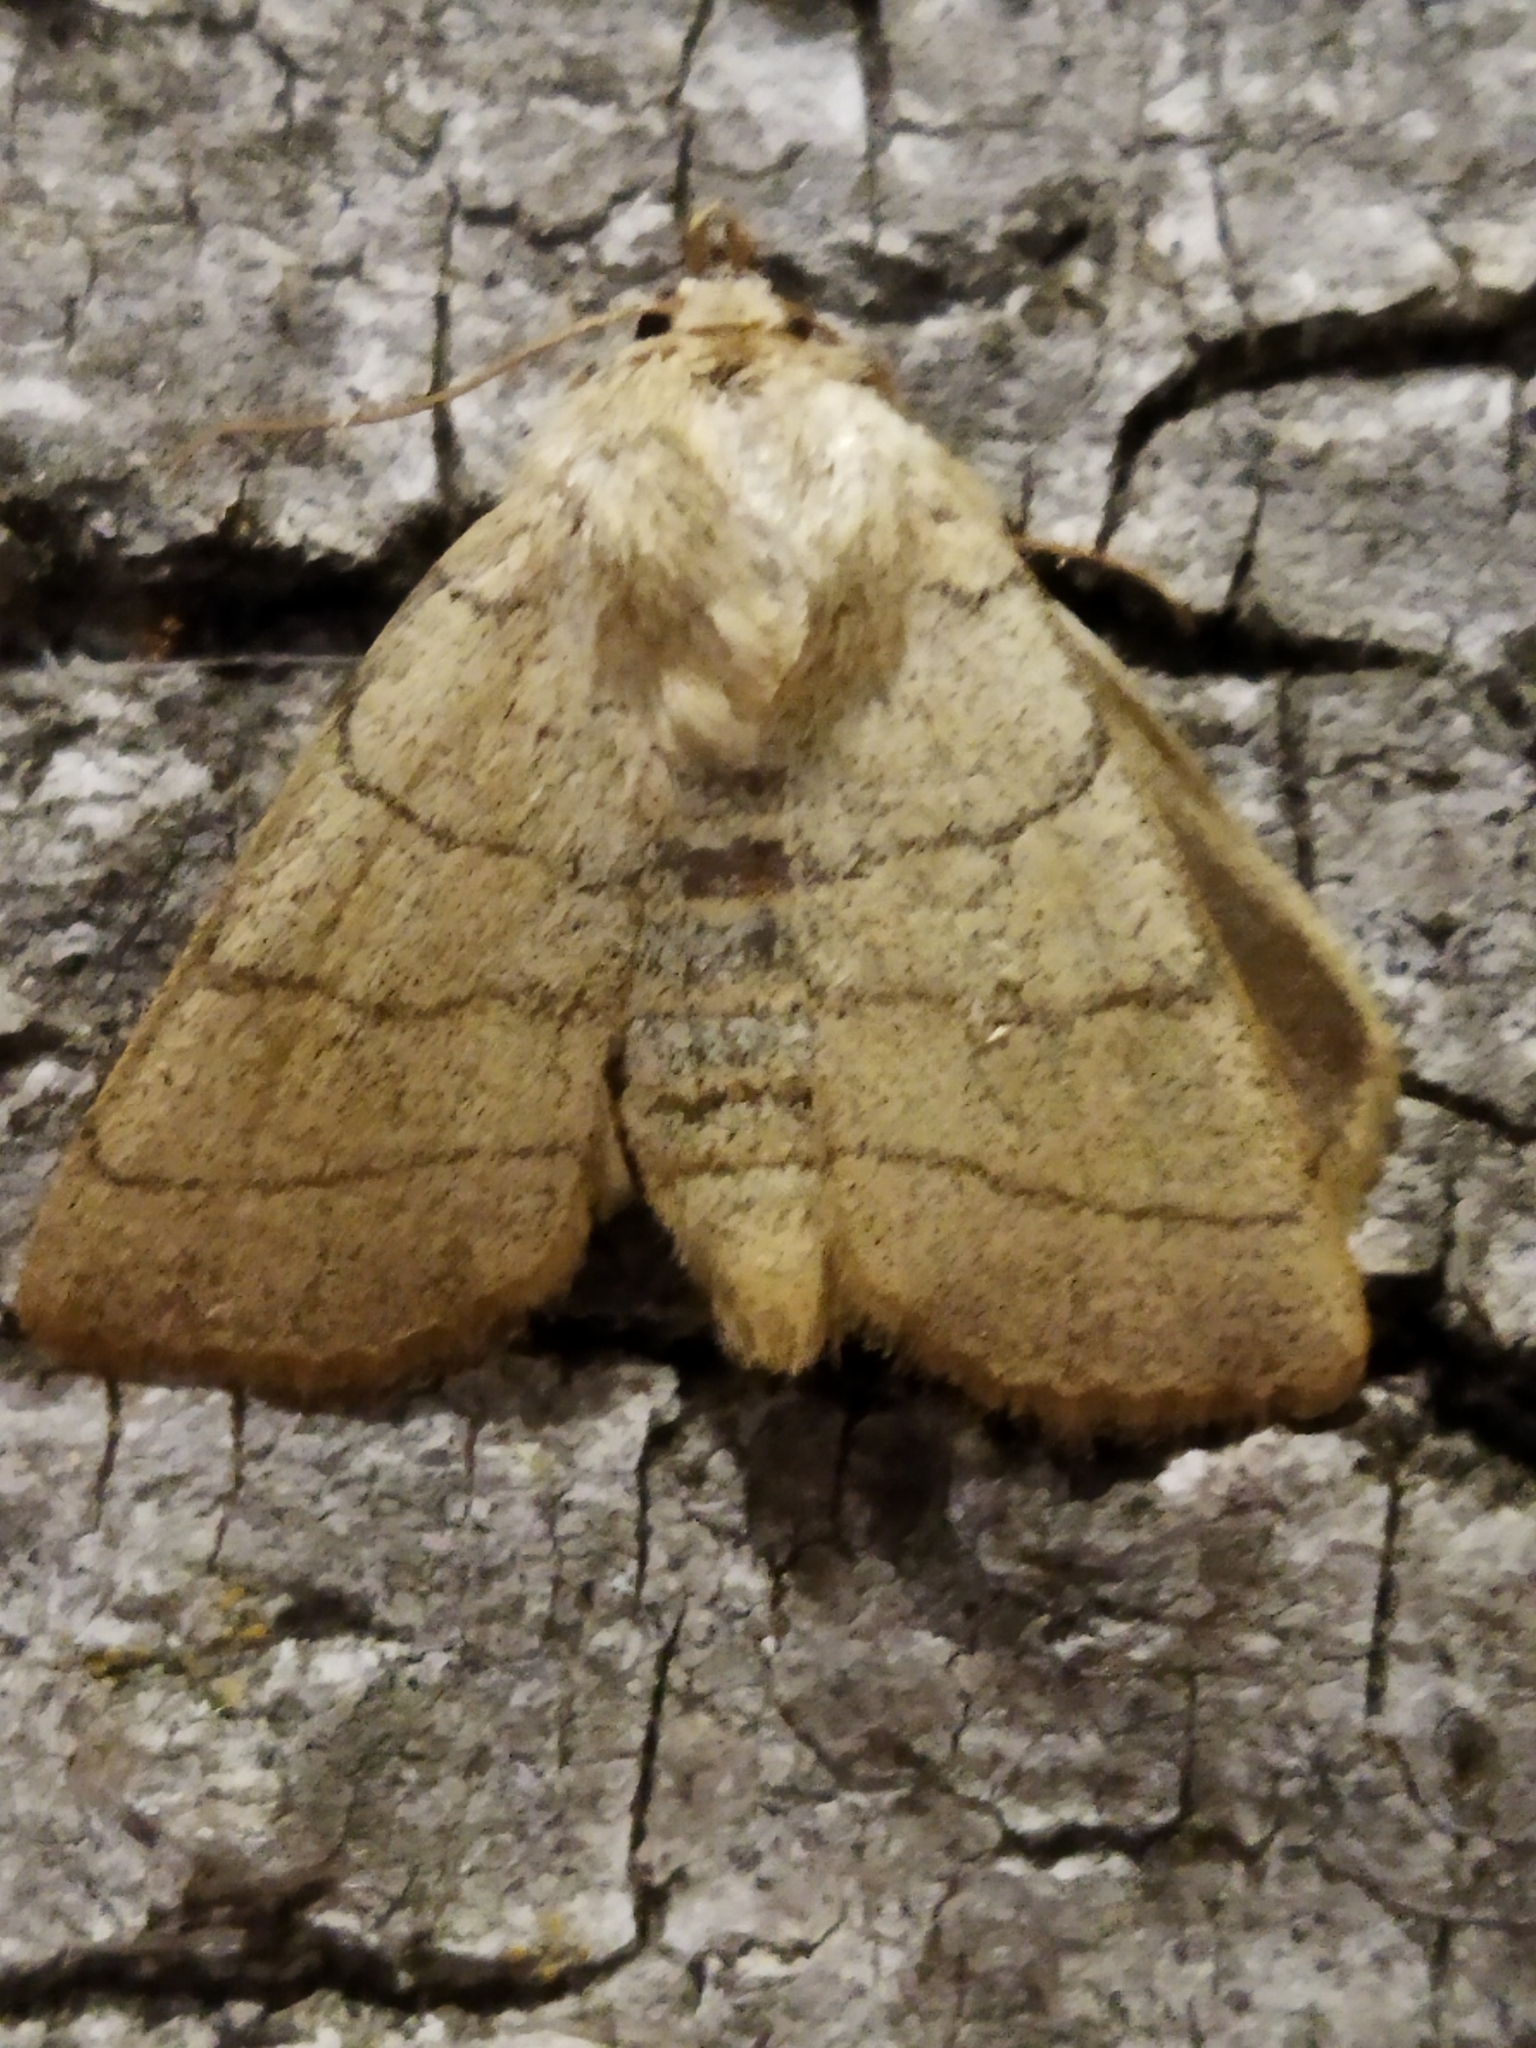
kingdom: Animalia
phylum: Arthropoda
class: Insecta
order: Lepidoptera
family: Noctuidae
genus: Charanyca
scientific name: Charanyca trigrammica
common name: Treble lines
